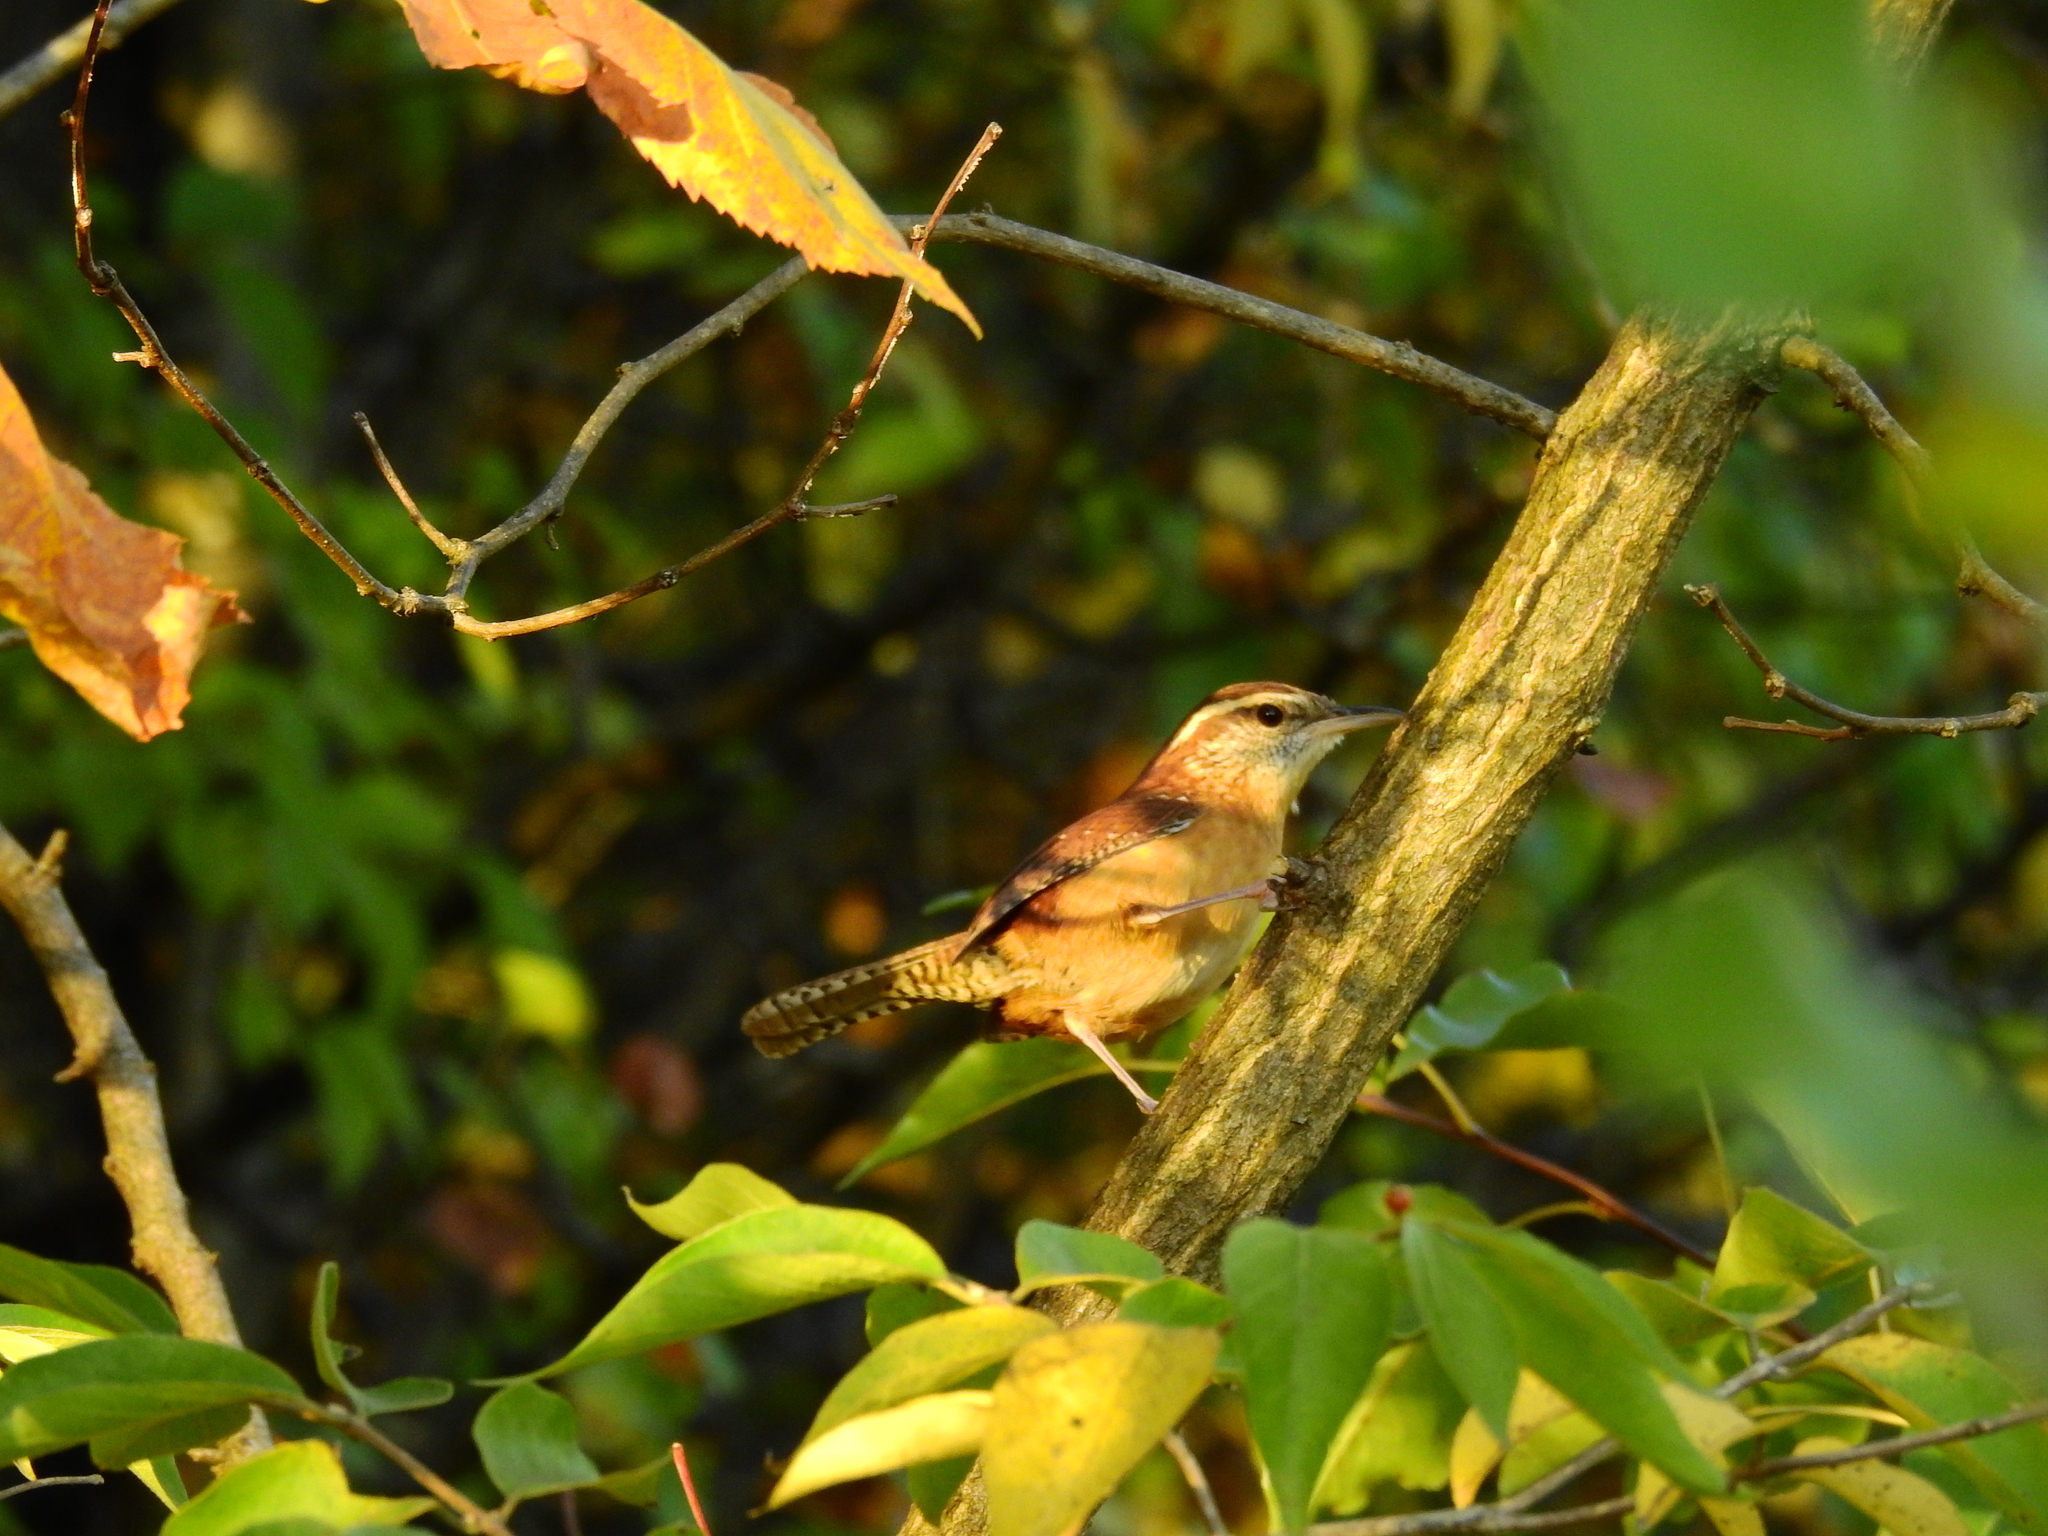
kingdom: Animalia
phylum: Chordata
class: Aves
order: Passeriformes
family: Troglodytidae
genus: Thryothorus
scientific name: Thryothorus ludovicianus
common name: Carolina wren
